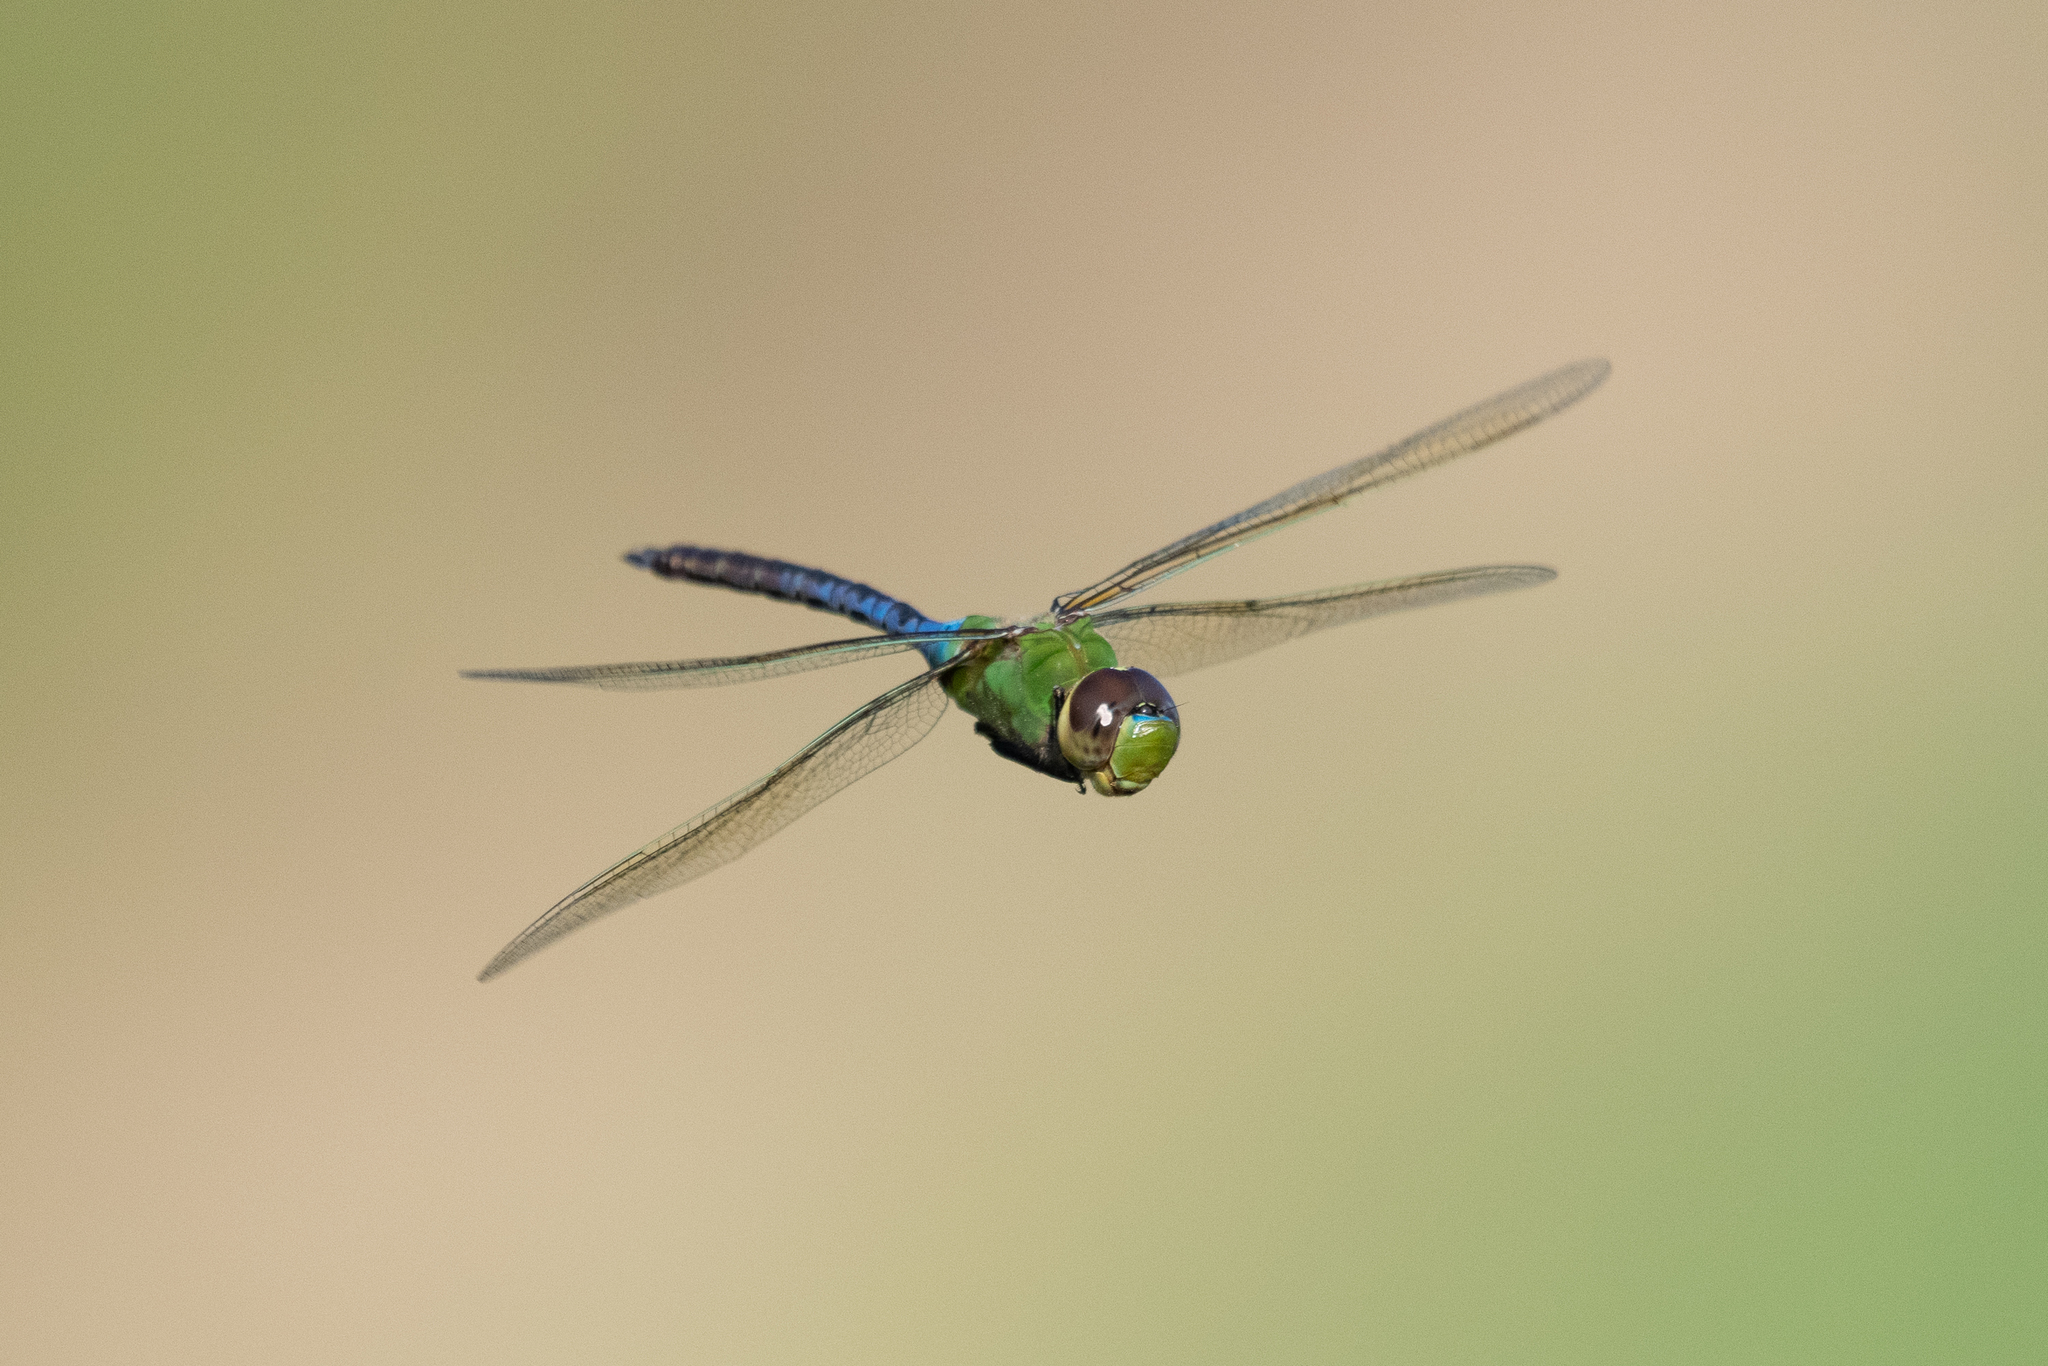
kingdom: Animalia
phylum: Arthropoda
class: Insecta
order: Odonata
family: Aeshnidae
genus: Anax
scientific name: Anax junius
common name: Common green darner
